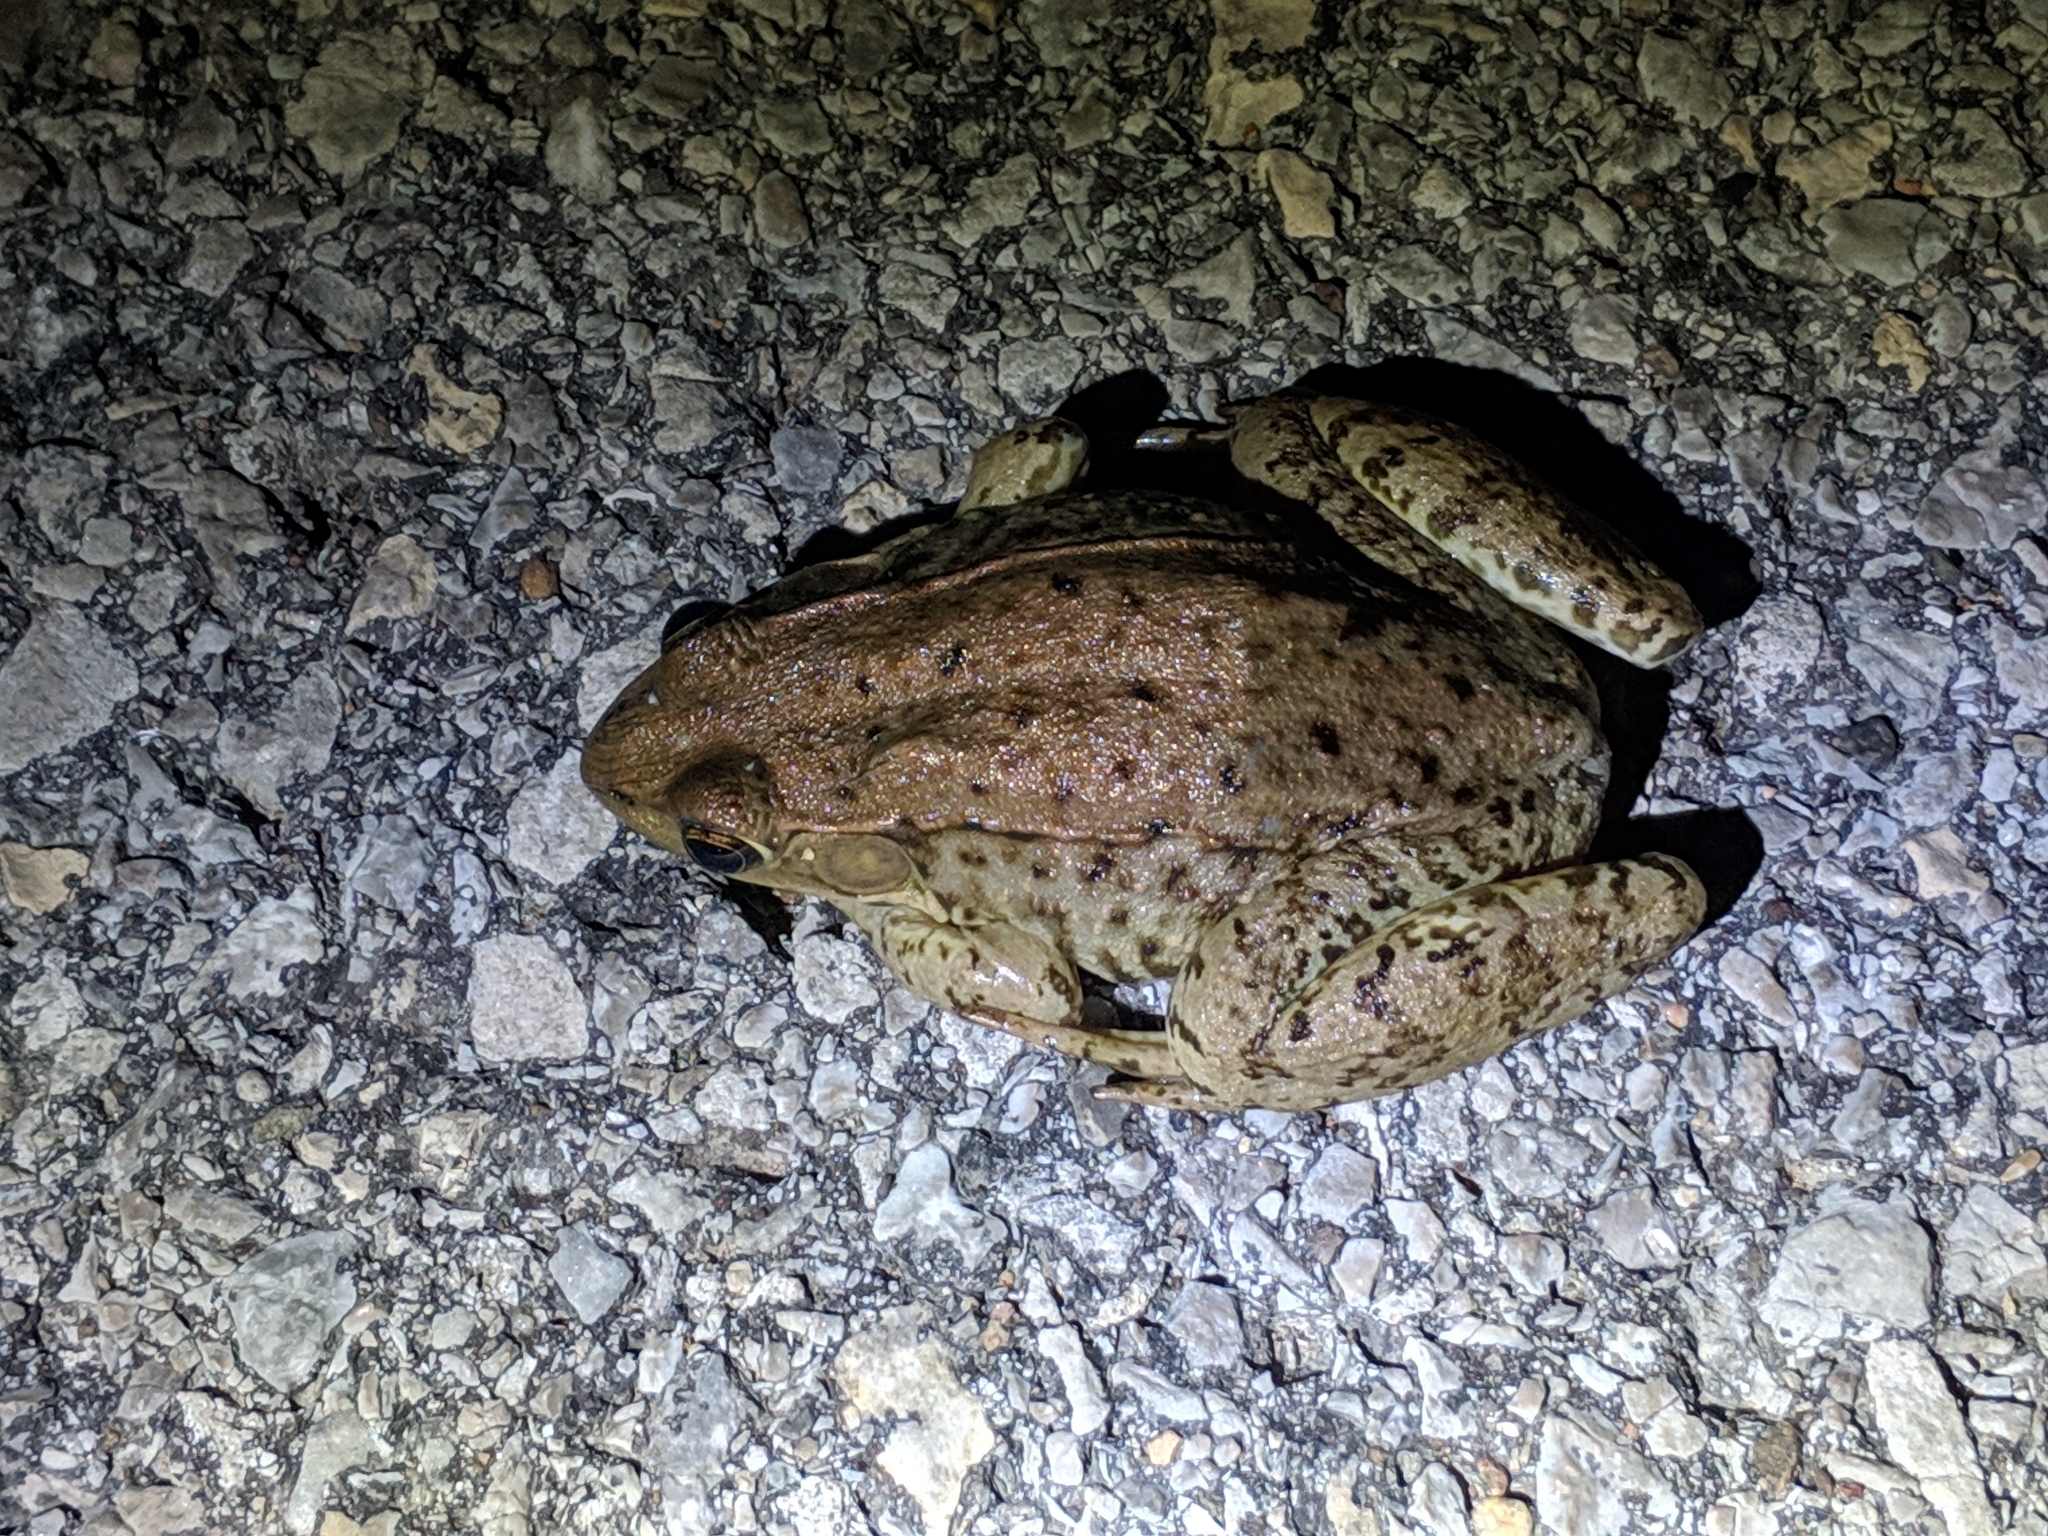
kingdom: Animalia
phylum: Chordata
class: Amphibia
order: Anura
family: Ranidae
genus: Lithobates
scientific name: Lithobates clamitans
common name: Green frog
